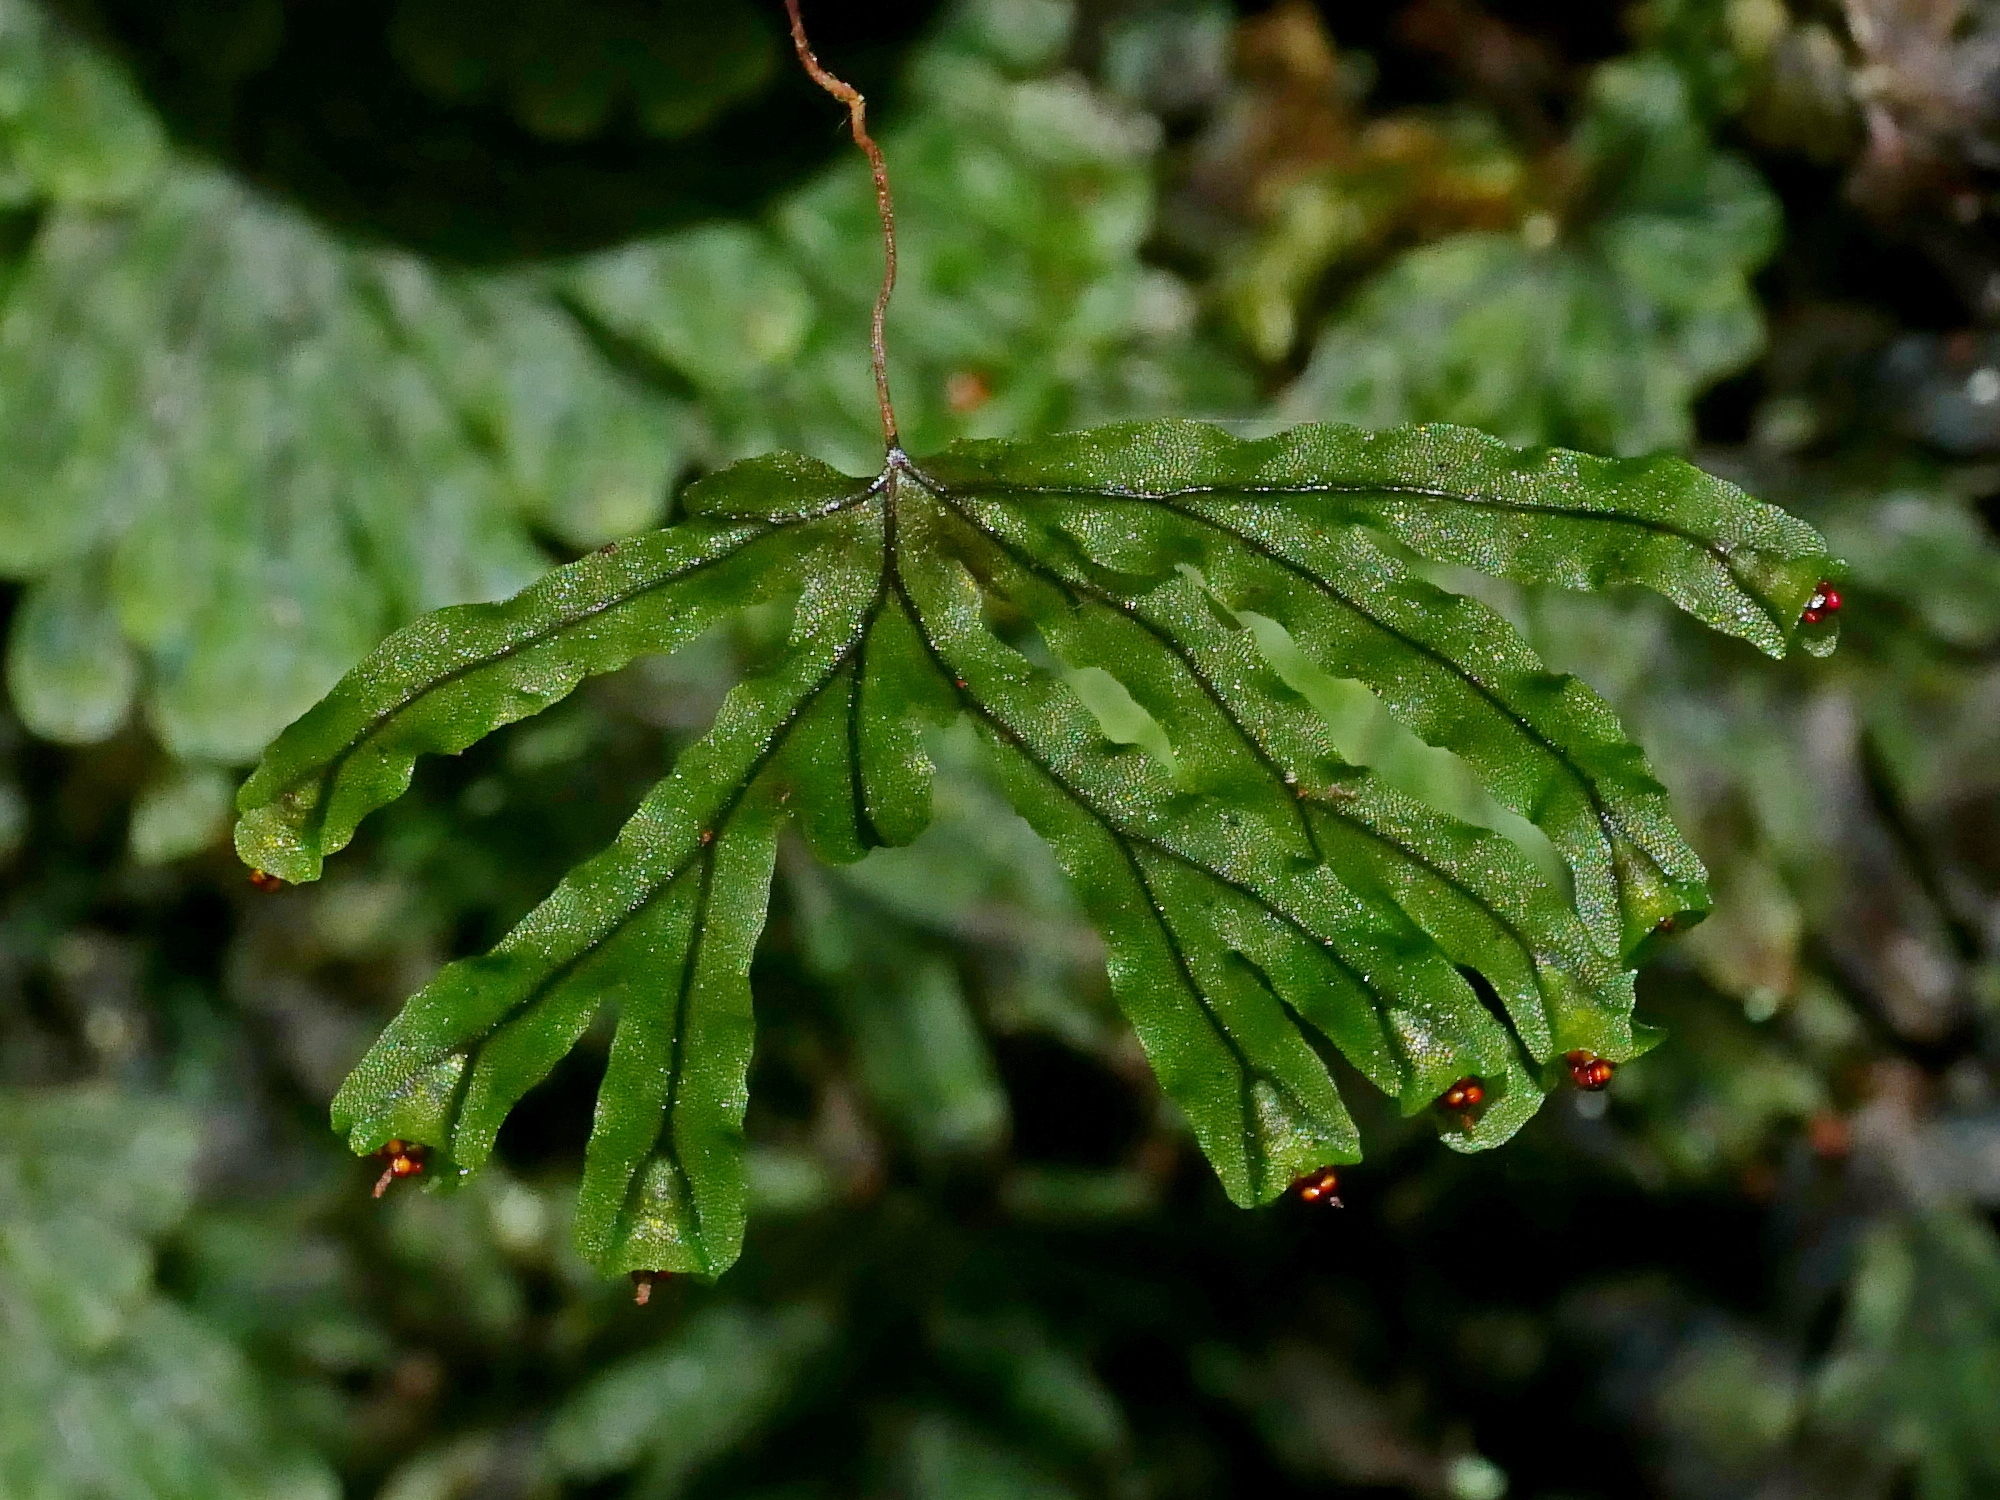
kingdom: Plantae
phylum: Tracheophyta
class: Polypodiopsida
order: Hymenophyllales
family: Hymenophyllaceae
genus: Hymenophyllum
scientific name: Hymenophyllum nitidulum
